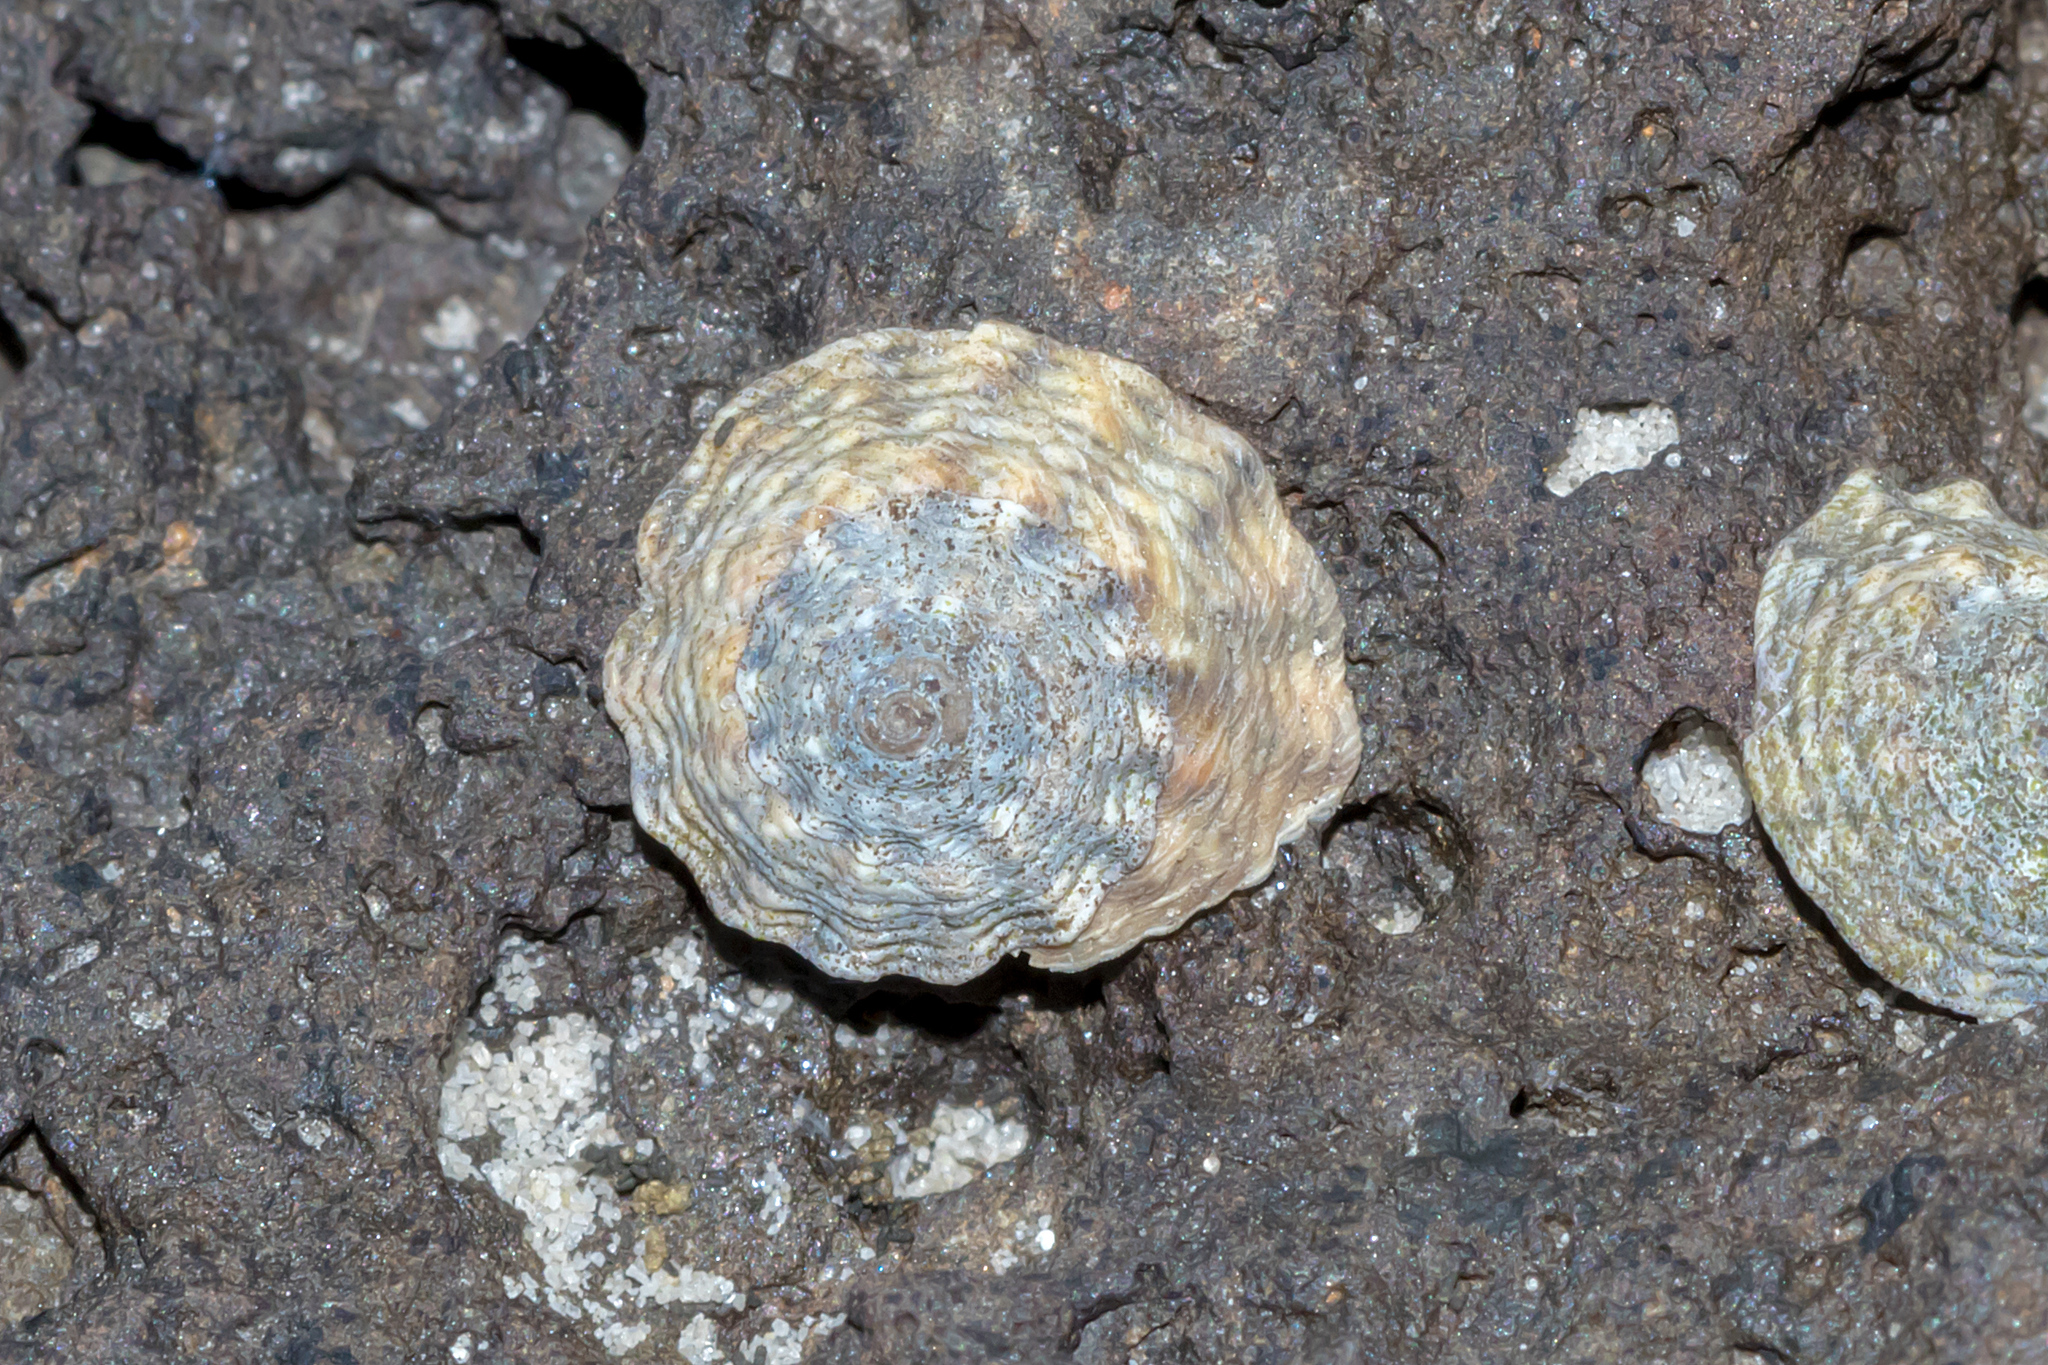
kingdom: Animalia
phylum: Mollusca
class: Gastropoda
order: Littorinimorpha
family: Littorinidae
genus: Bembicium
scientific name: Bembicium nanum
